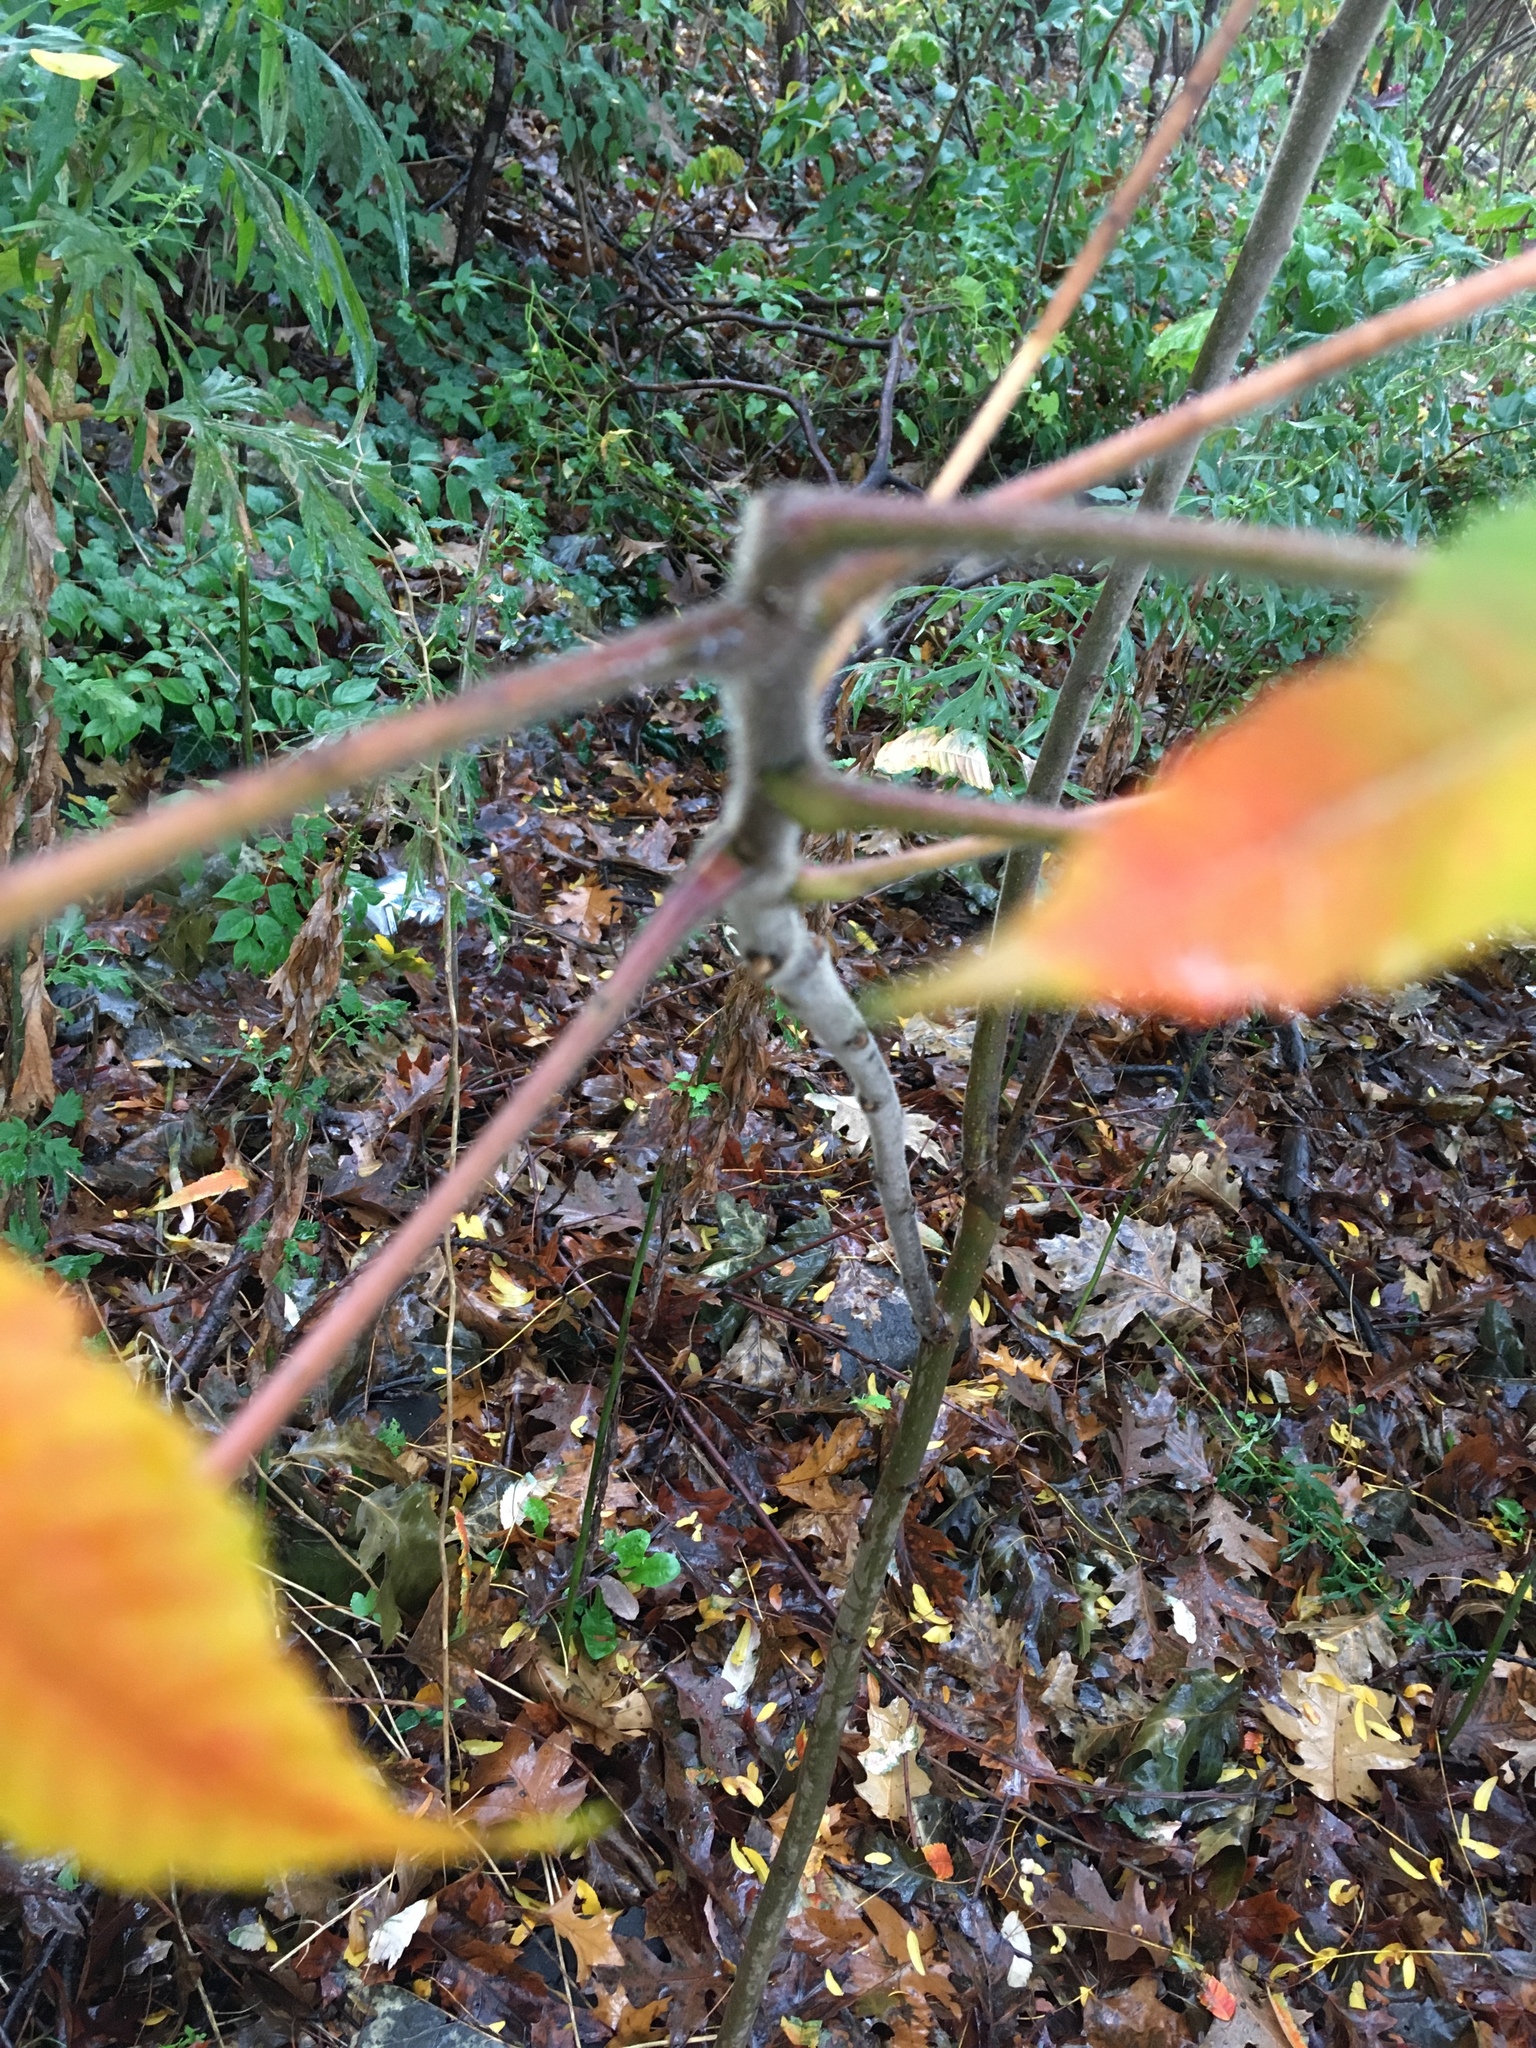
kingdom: Plantae
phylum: Tracheophyta
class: Magnoliopsida
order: Sapindales
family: Anacardiaceae
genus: Rhus
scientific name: Rhus typhina
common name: Staghorn sumac
